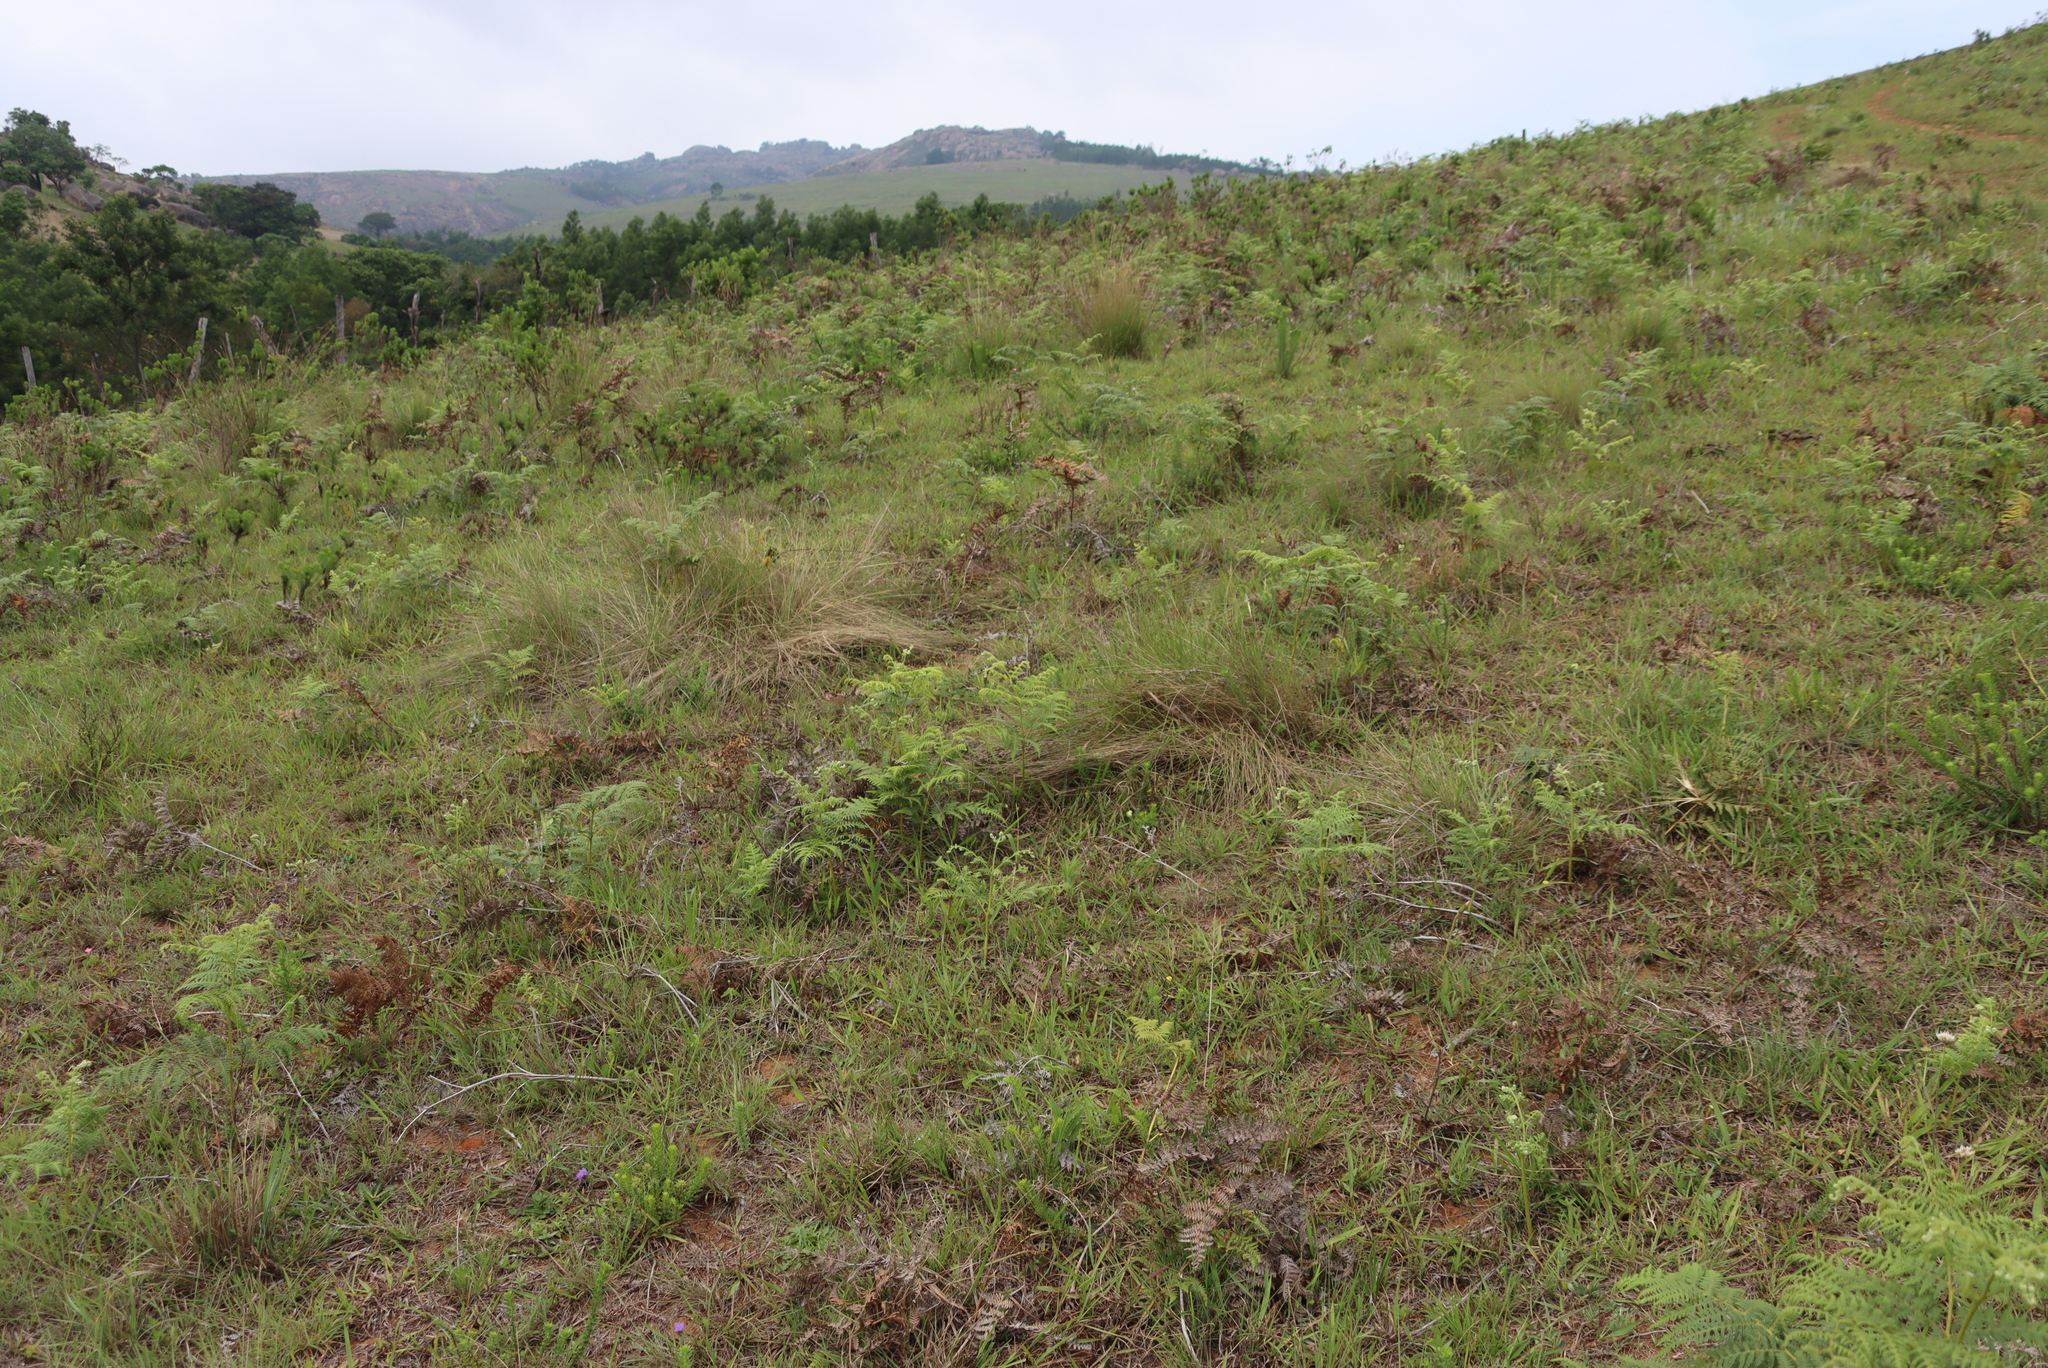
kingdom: Plantae
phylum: Tracheophyta
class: Polypodiopsida
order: Polypodiales
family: Dennstaedtiaceae
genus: Pteridium
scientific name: Pteridium aquilinum
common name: Bracken
